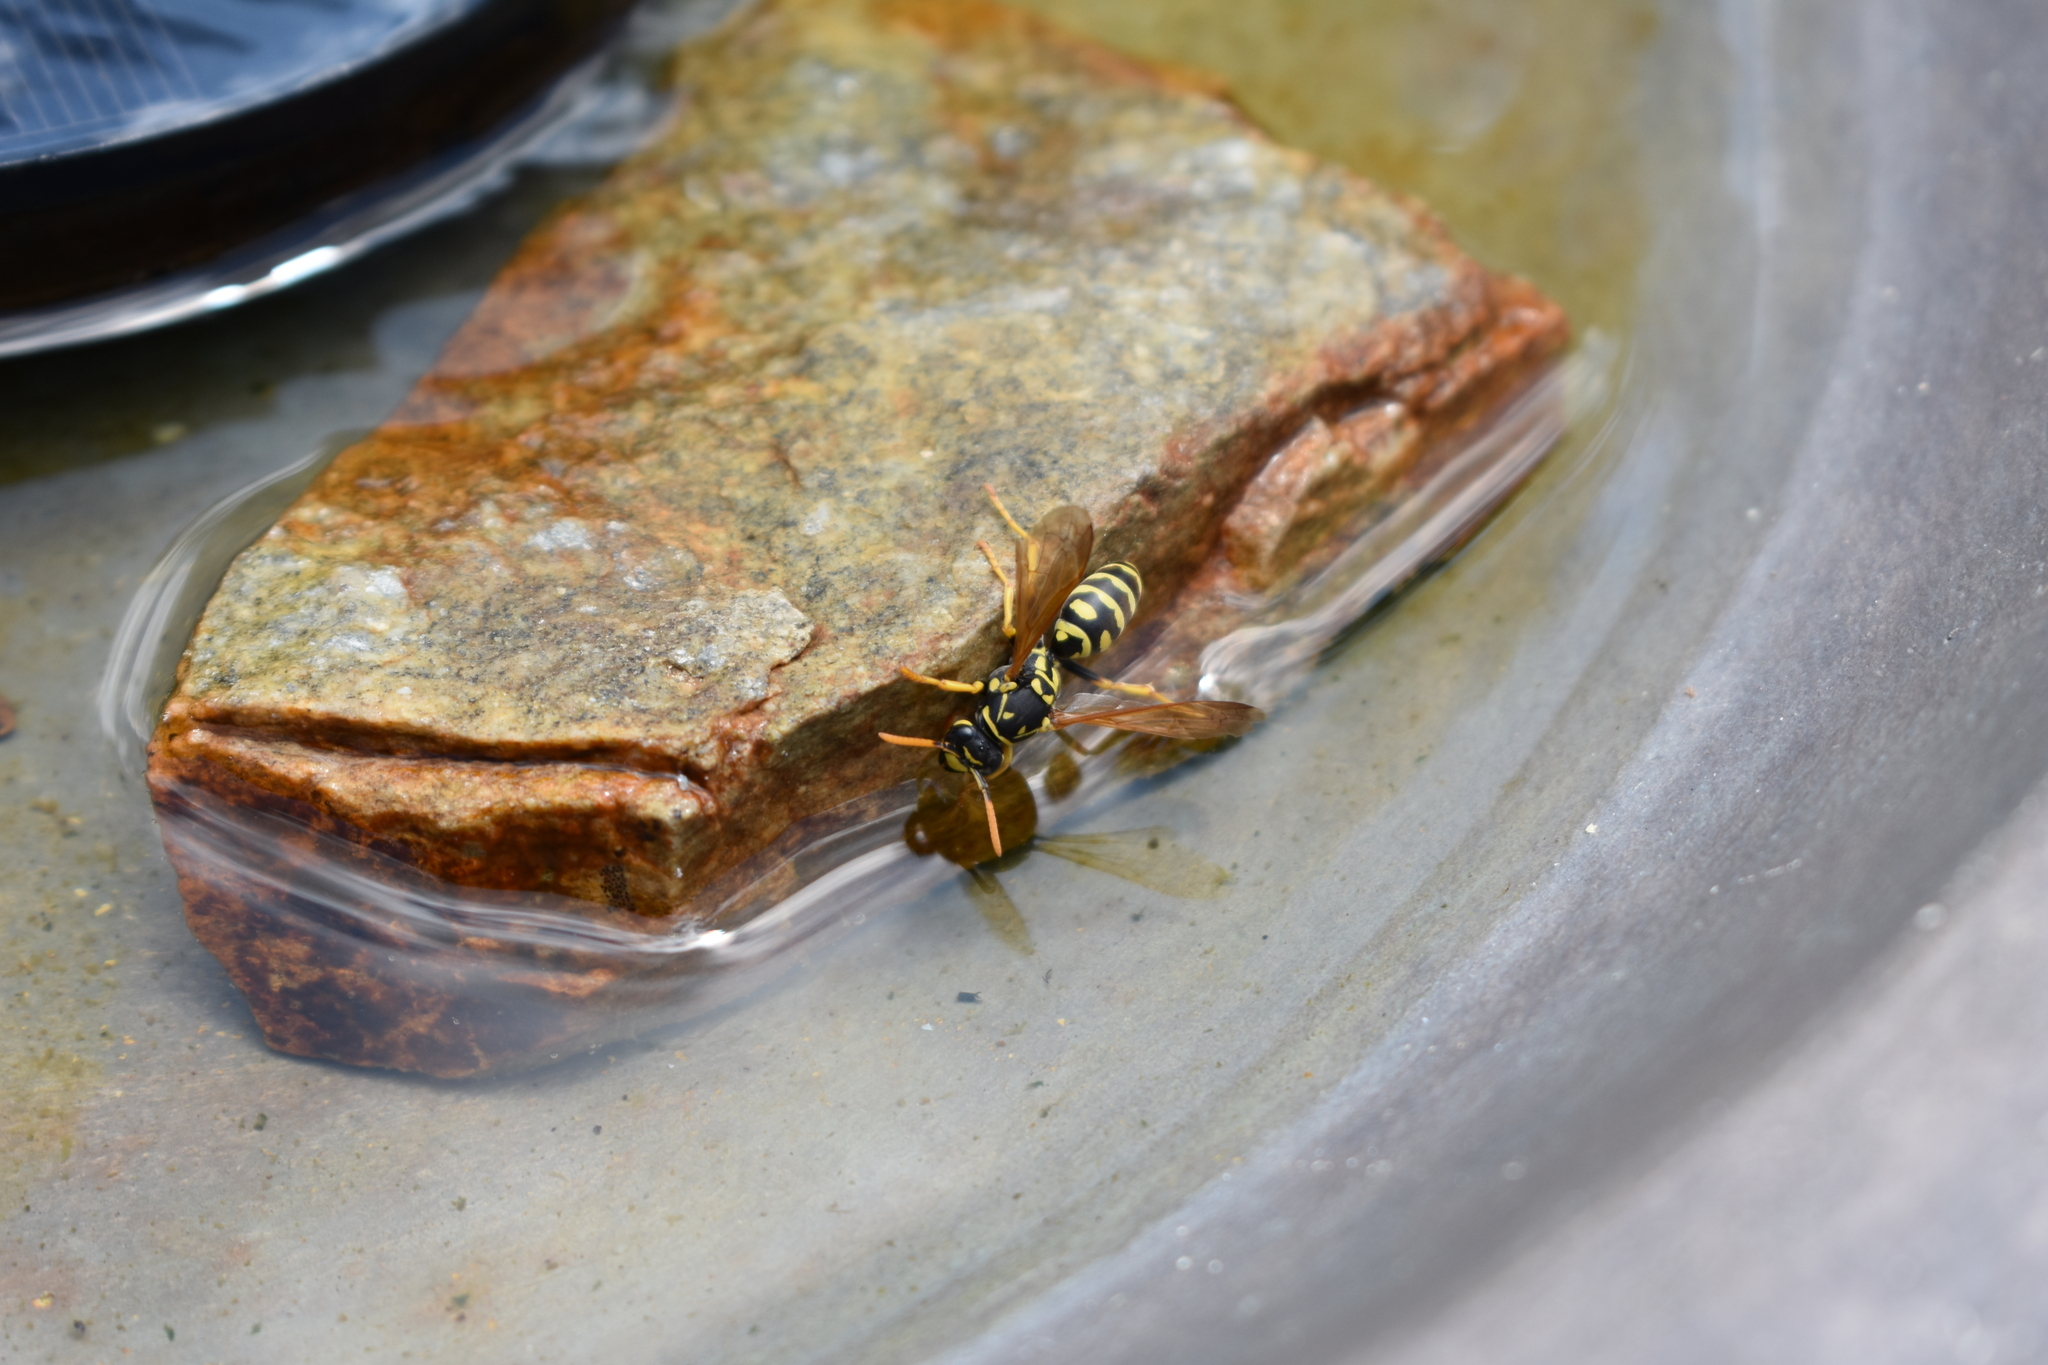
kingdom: Animalia
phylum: Arthropoda
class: Insecta
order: Hymenoptera
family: Eumenidae
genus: Polistes
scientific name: Polistes dominula
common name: Paper wasp
